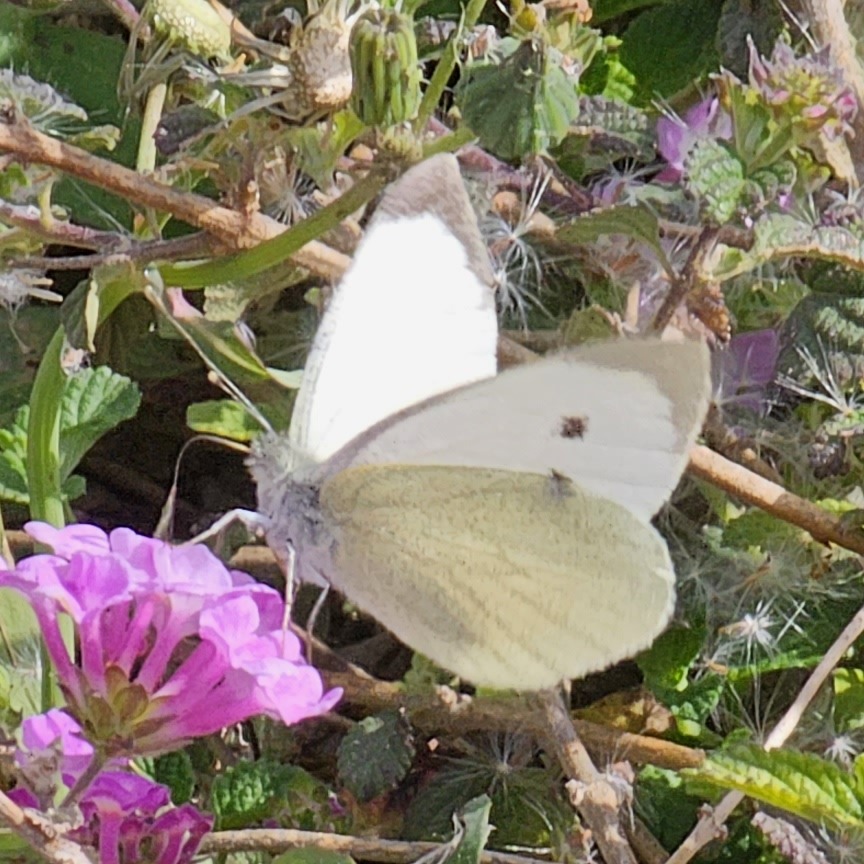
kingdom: Animalia
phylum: Arthropoda
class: Insecta
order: Lepidoptera
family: Pieridae
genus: Pieris
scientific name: Pieris brassicae
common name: Large white
